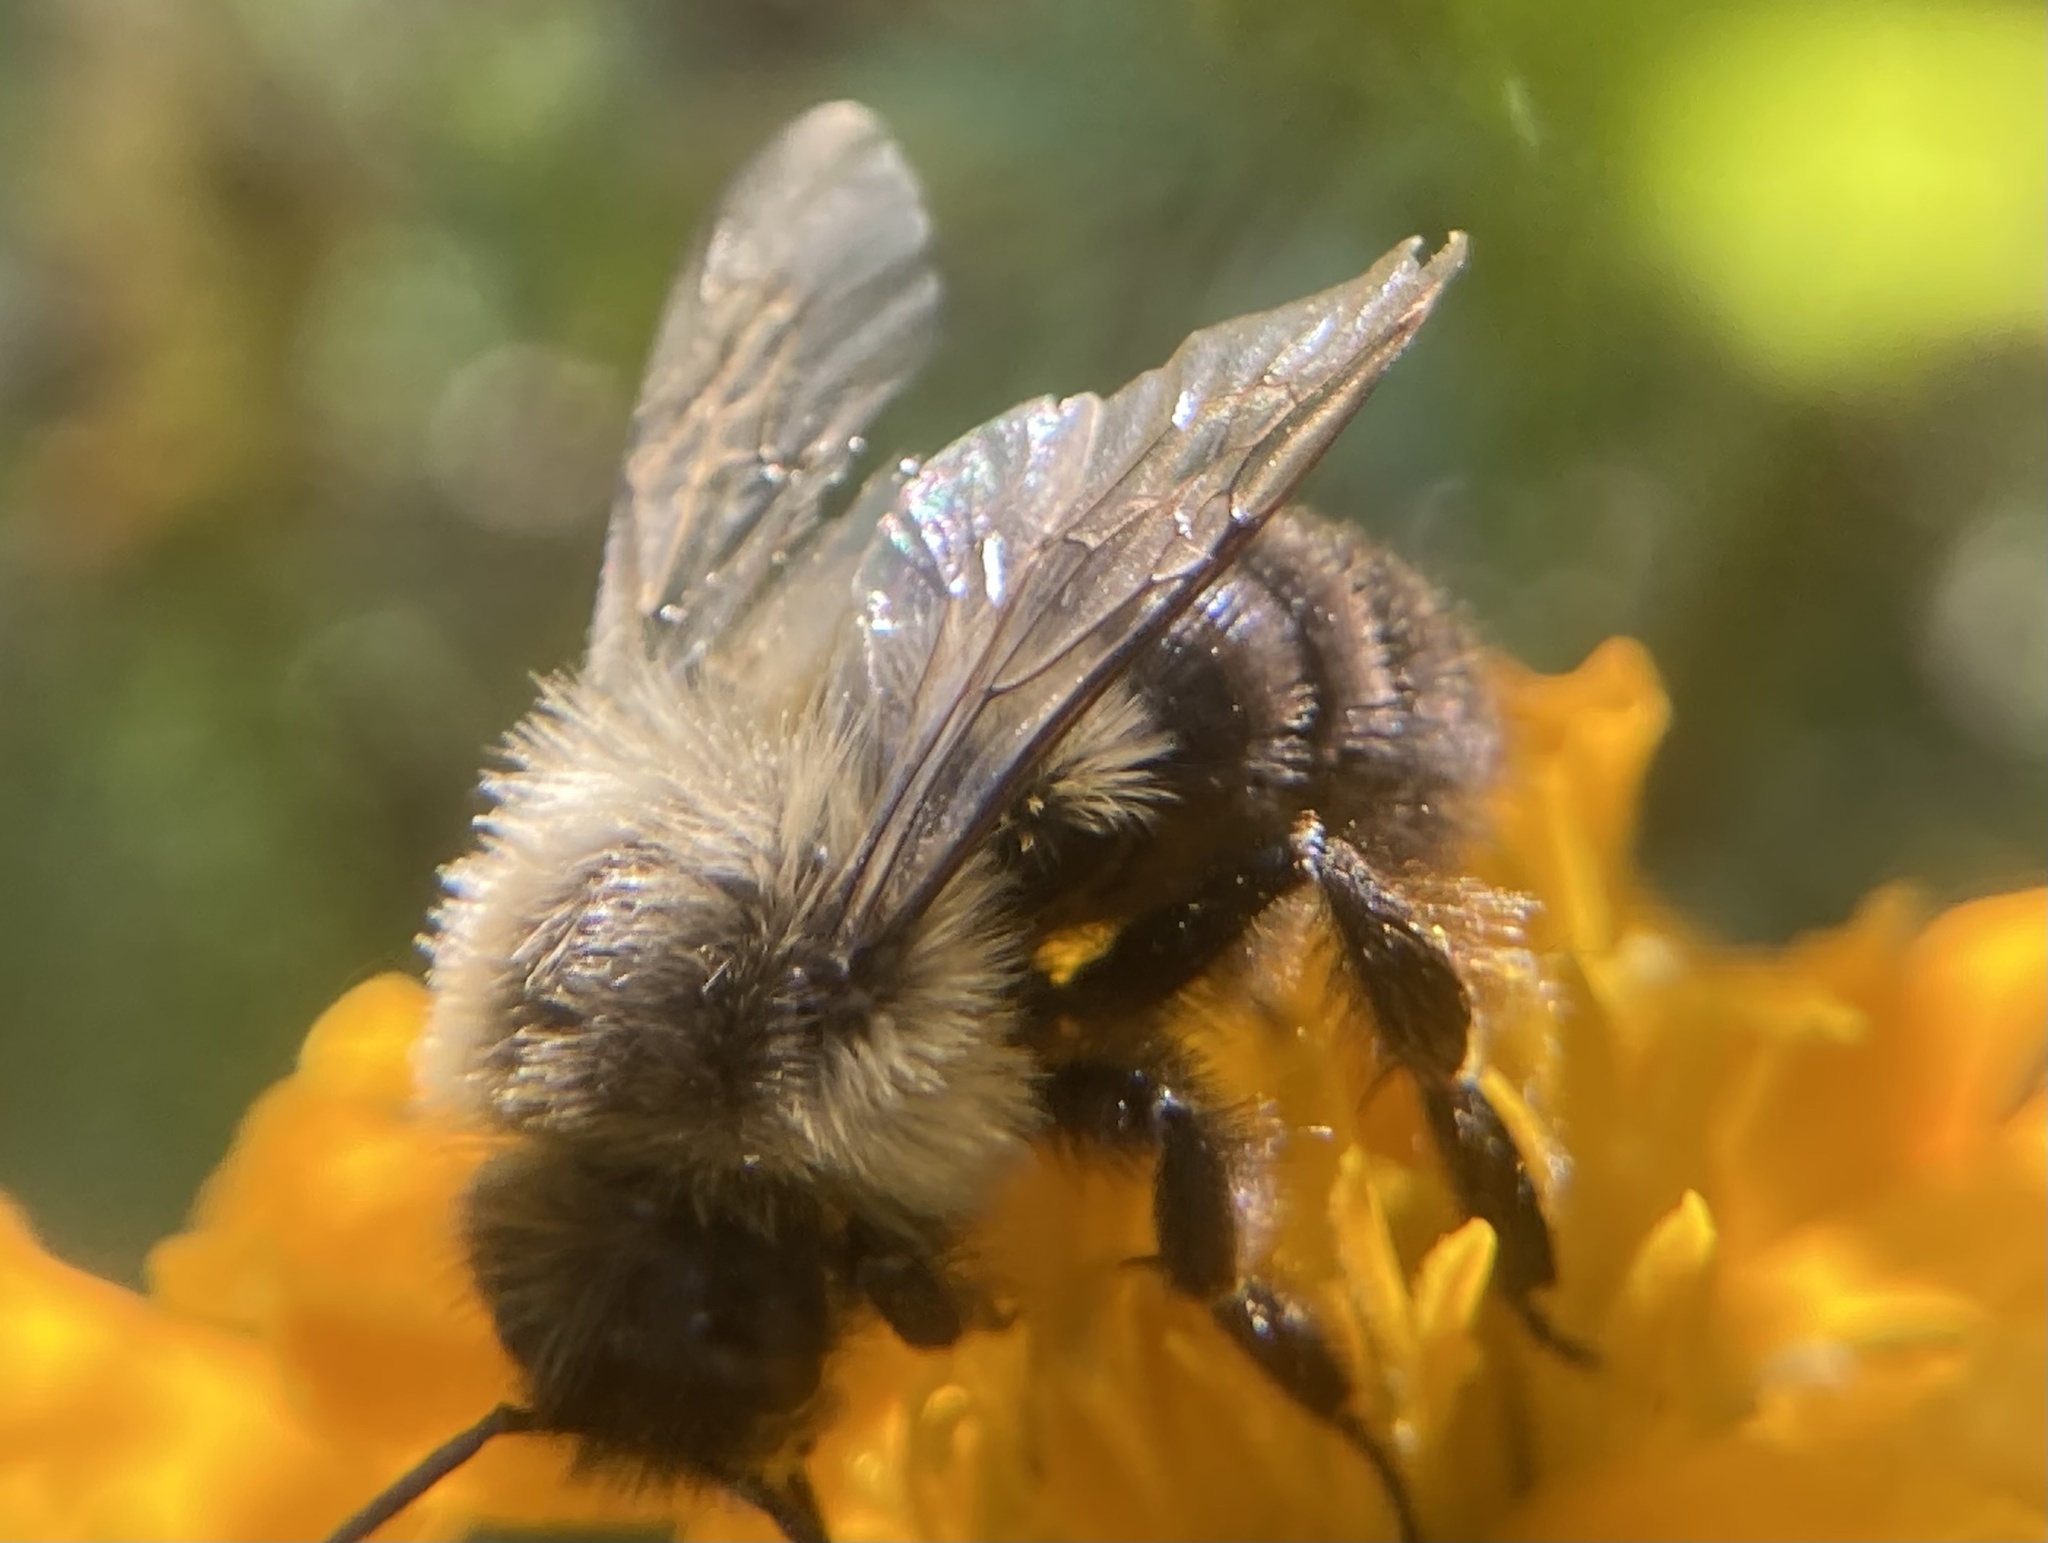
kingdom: Animalia
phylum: Arthropoda
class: Insecta
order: Hymenoptera
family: Apidae
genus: Bombus
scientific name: Bombus impatiens
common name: Common eastern bumble bee
